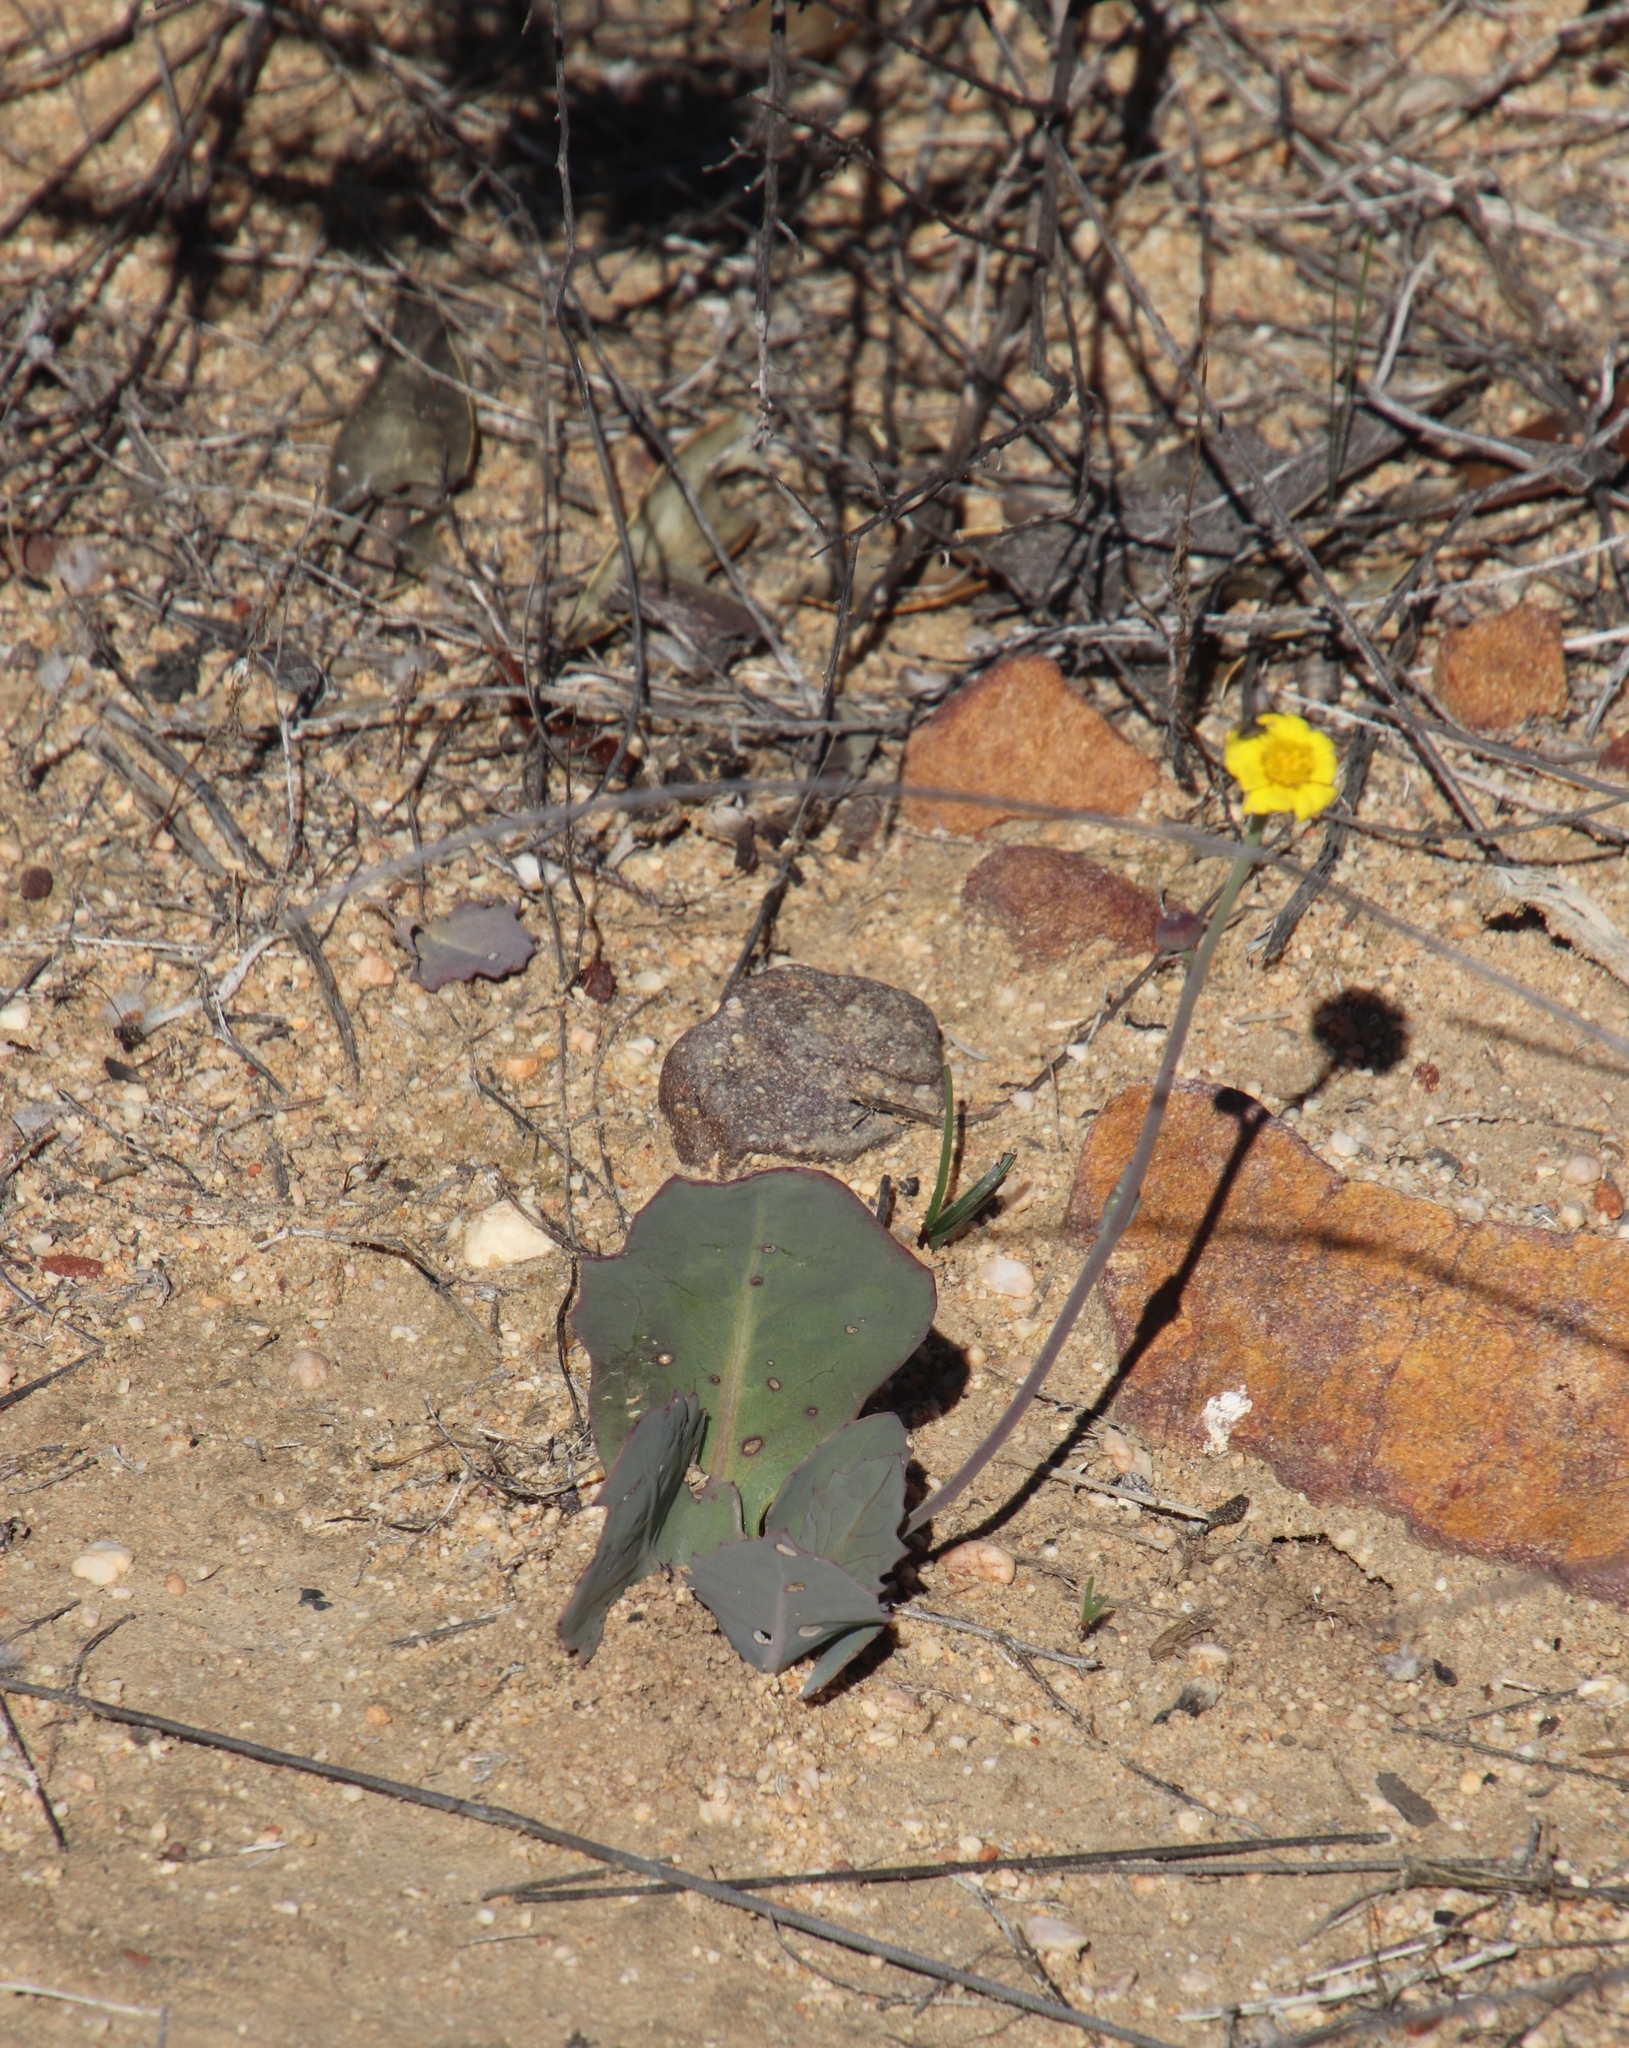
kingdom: Plantae
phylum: Tracheophyta
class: Magnoliopsida
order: Asterales
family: Asteraceae
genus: Othonna
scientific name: Othonna petiolaris
